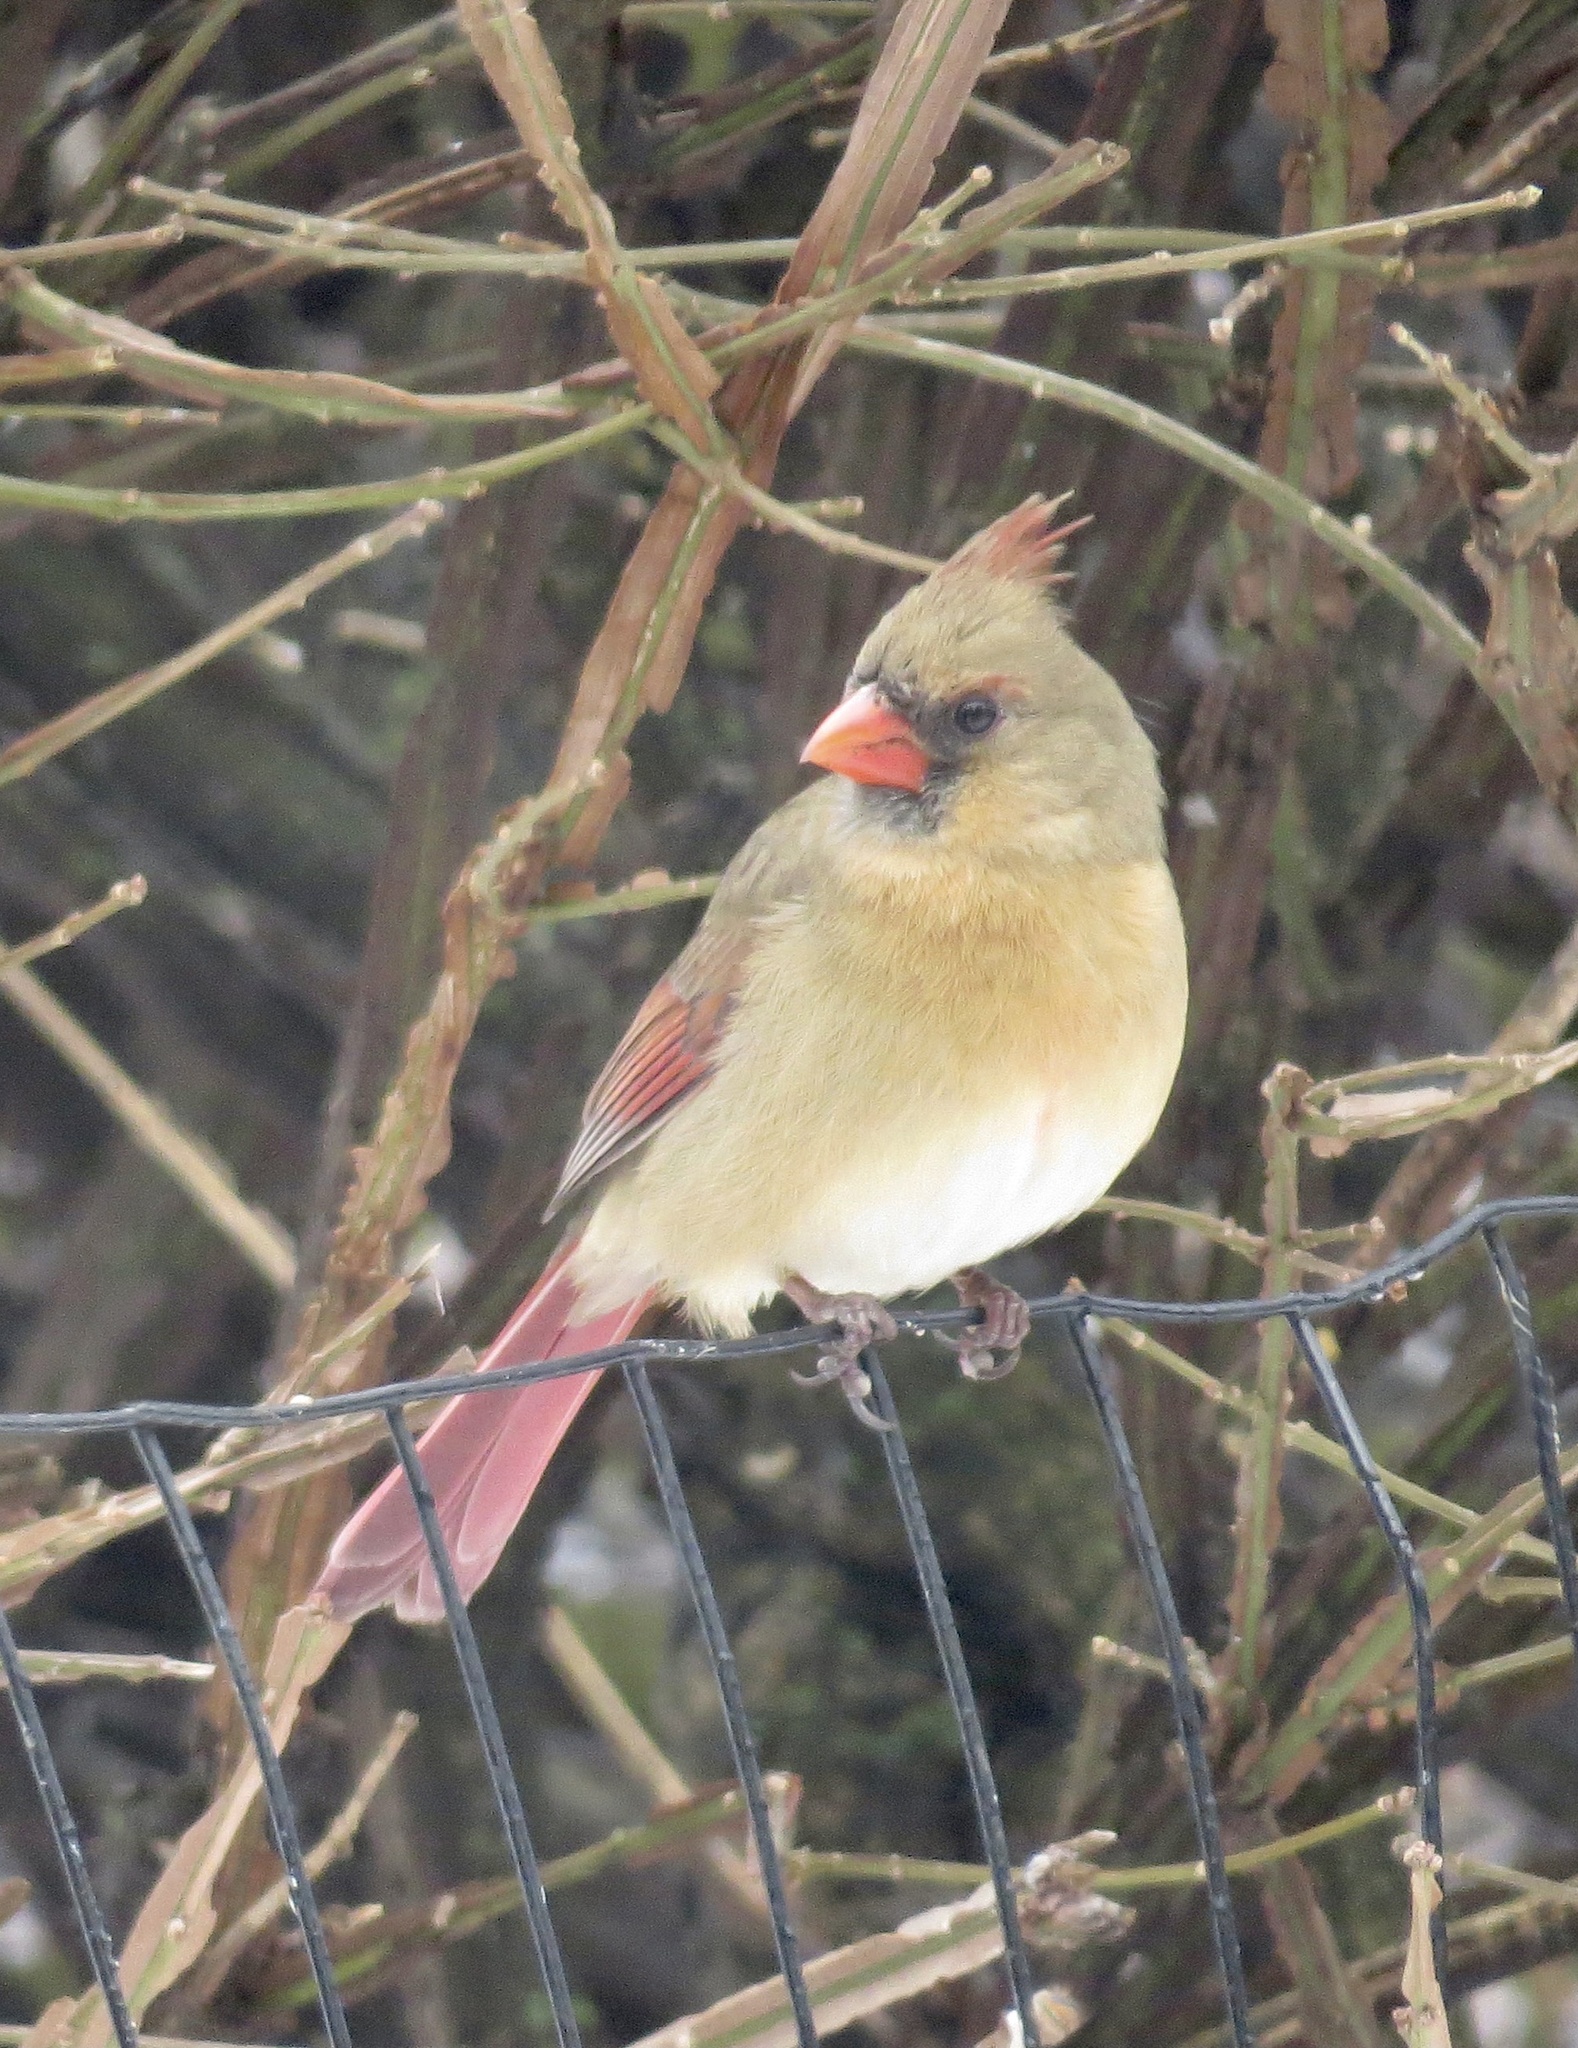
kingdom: Animalia
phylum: Chordata
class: Aves
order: Passeriformes
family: Cardinalidae
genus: Cardinalis
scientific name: Cardinalis cardinalis
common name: Northern cardinal
